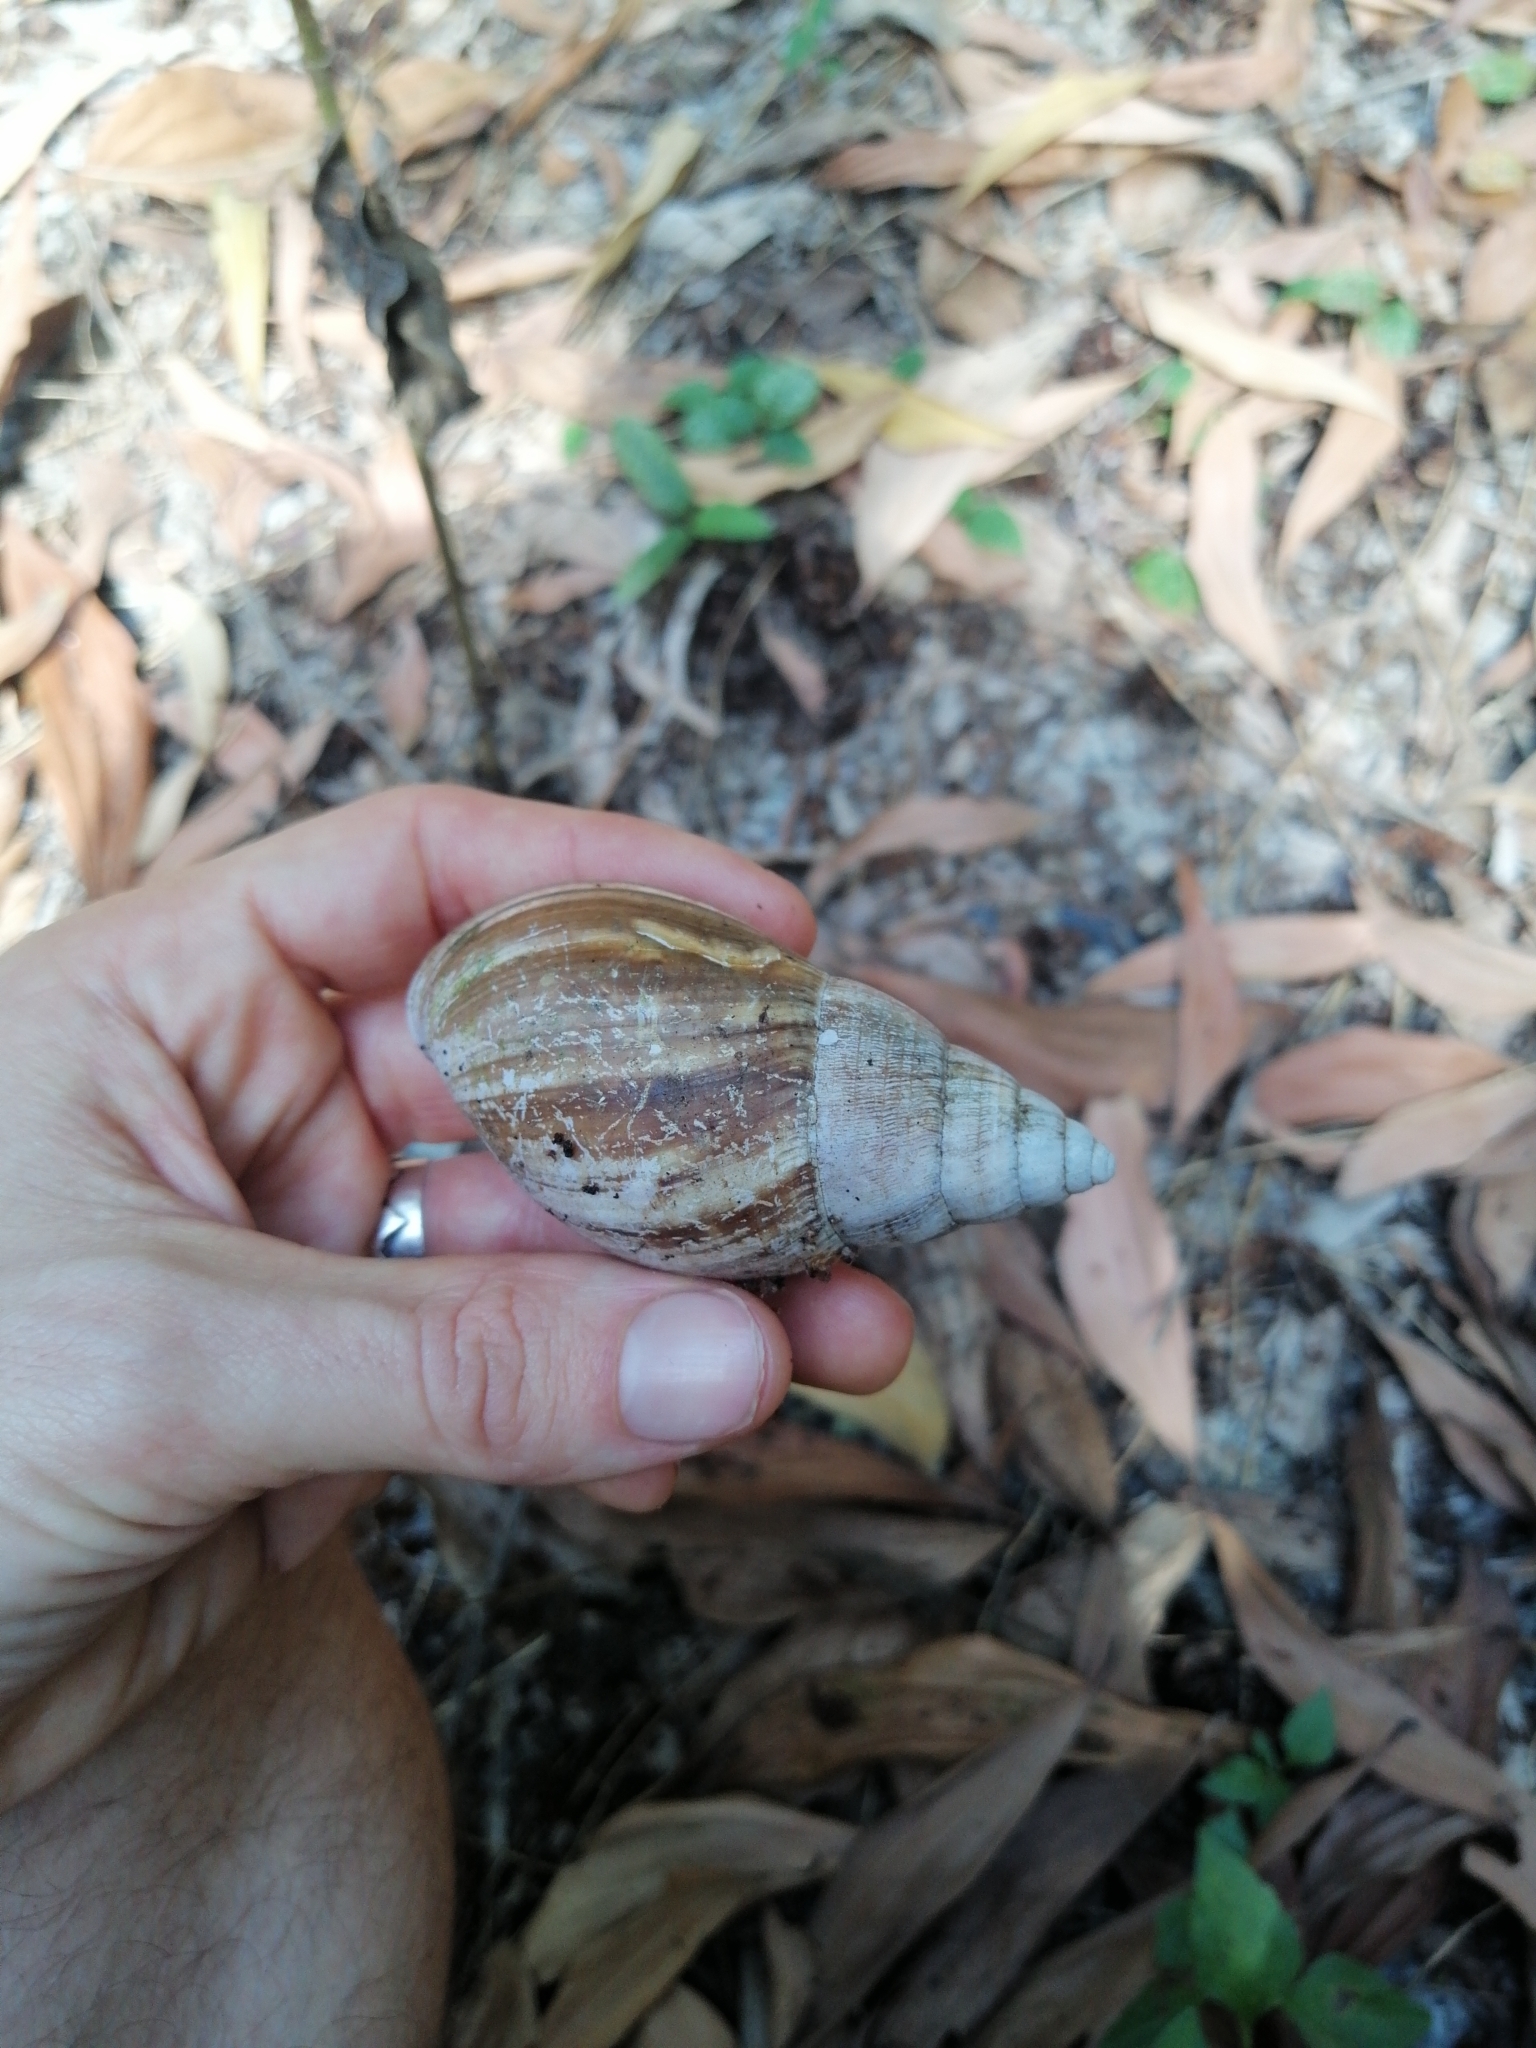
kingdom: Animalia
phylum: Mollusca
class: Gastropoda
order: Stylommatophora
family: Achatinidae
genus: Lissachatina
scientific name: Lissachatina immaculata
